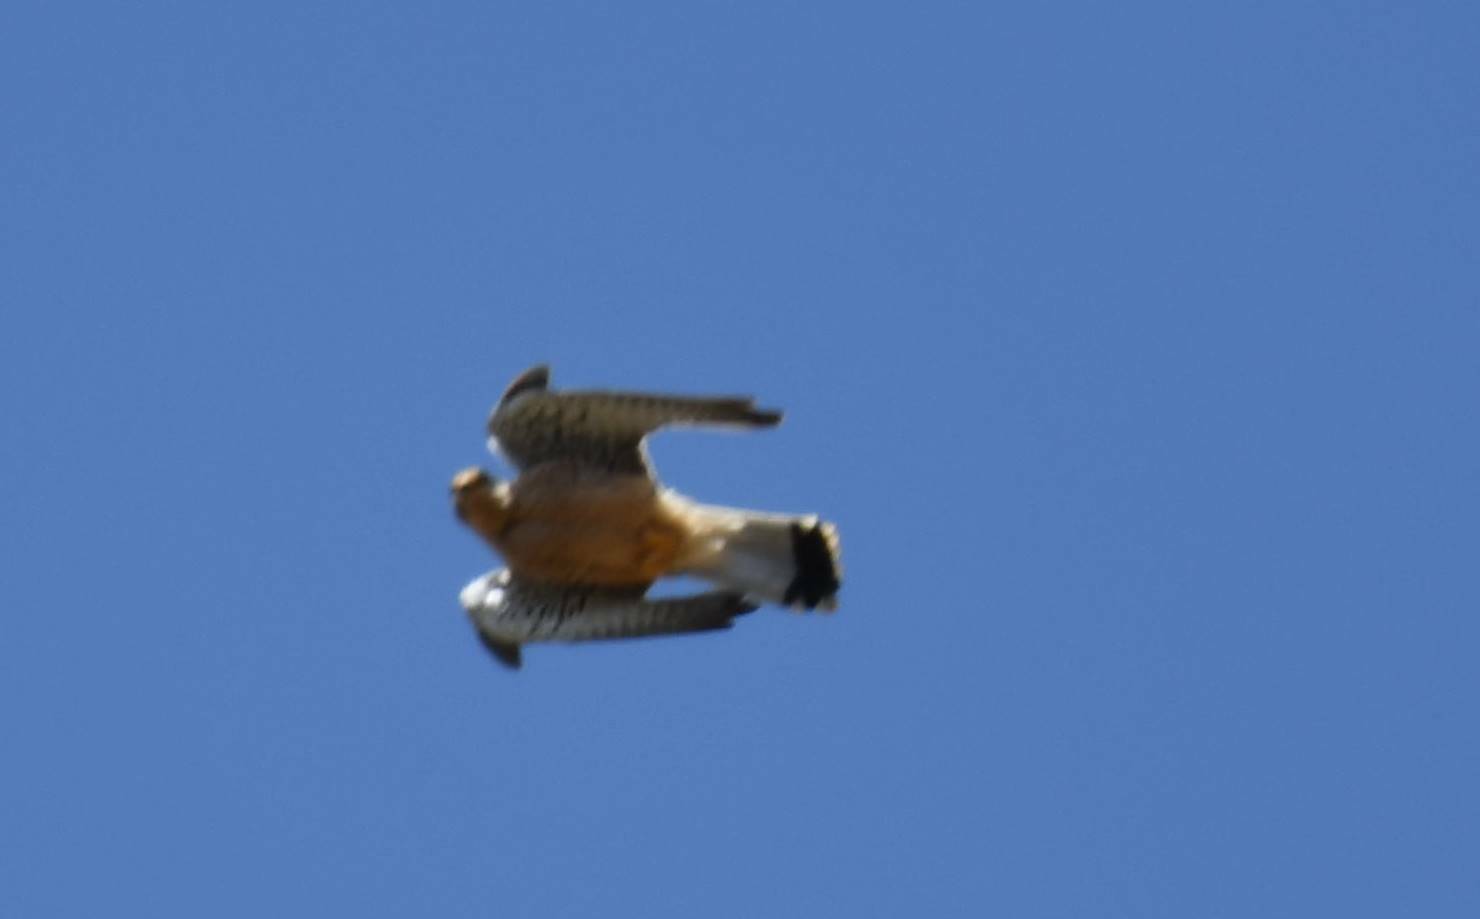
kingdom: Animalia
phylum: Chordata
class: Aves
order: Falconiformes
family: Falconidae
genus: Falco
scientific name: Falco naumanni
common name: Lesser kestrel
